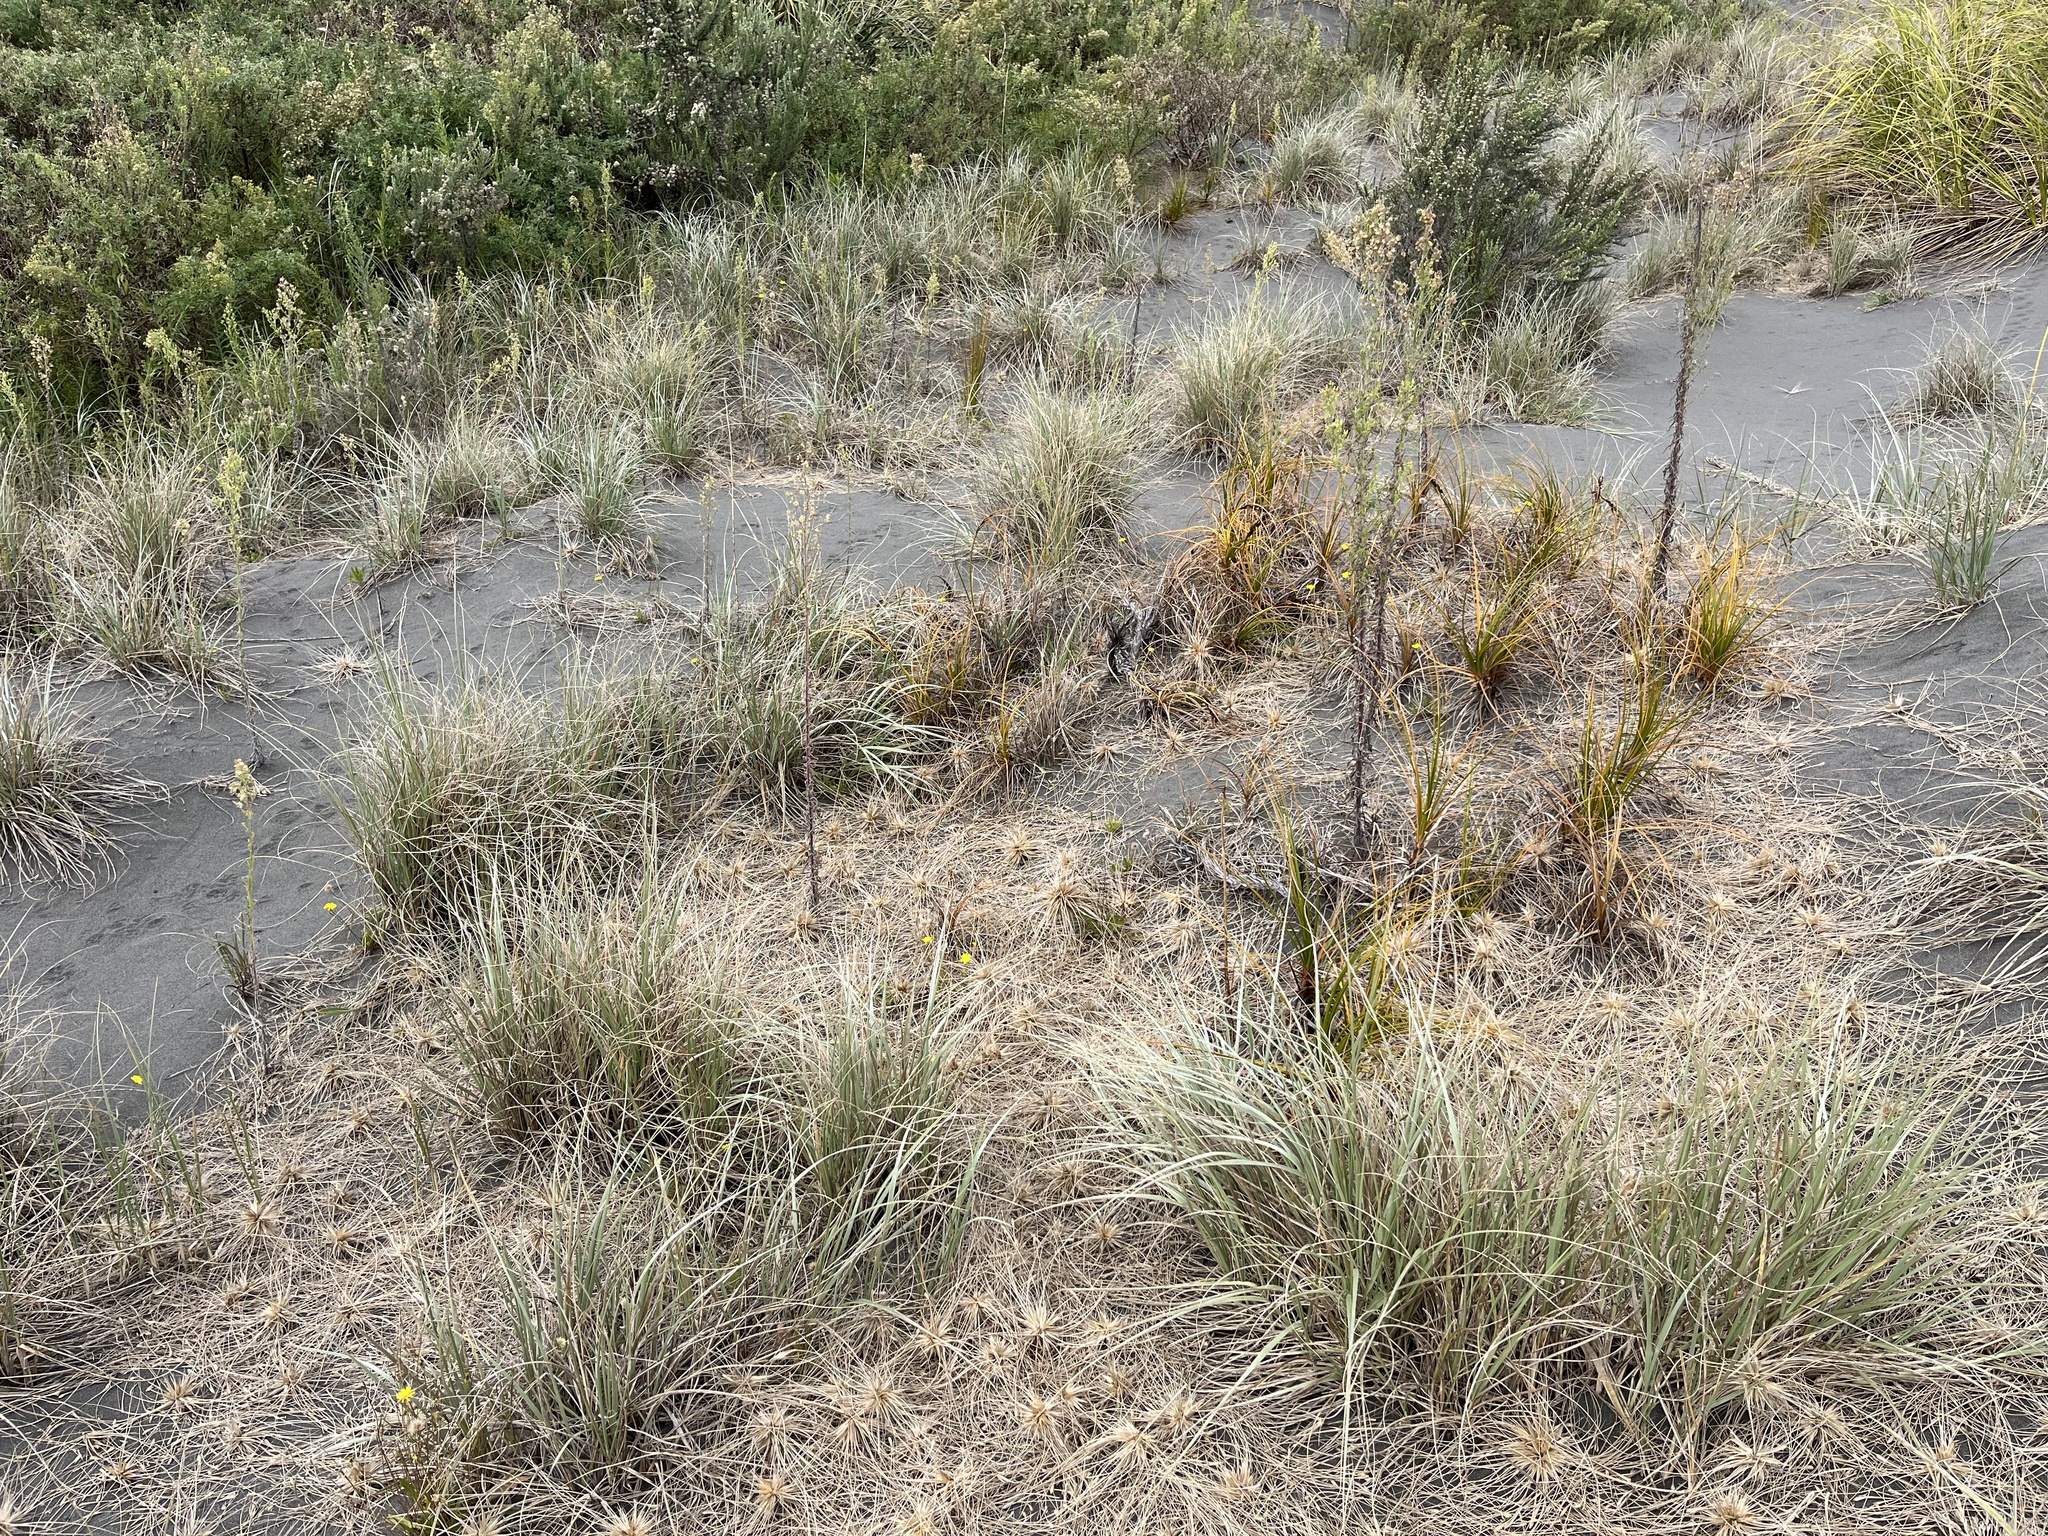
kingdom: Plantae
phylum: Tracheophyta
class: Liliopsida
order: Poales
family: Cyperaceae
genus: Ficinia
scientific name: Ficinia spiralis
